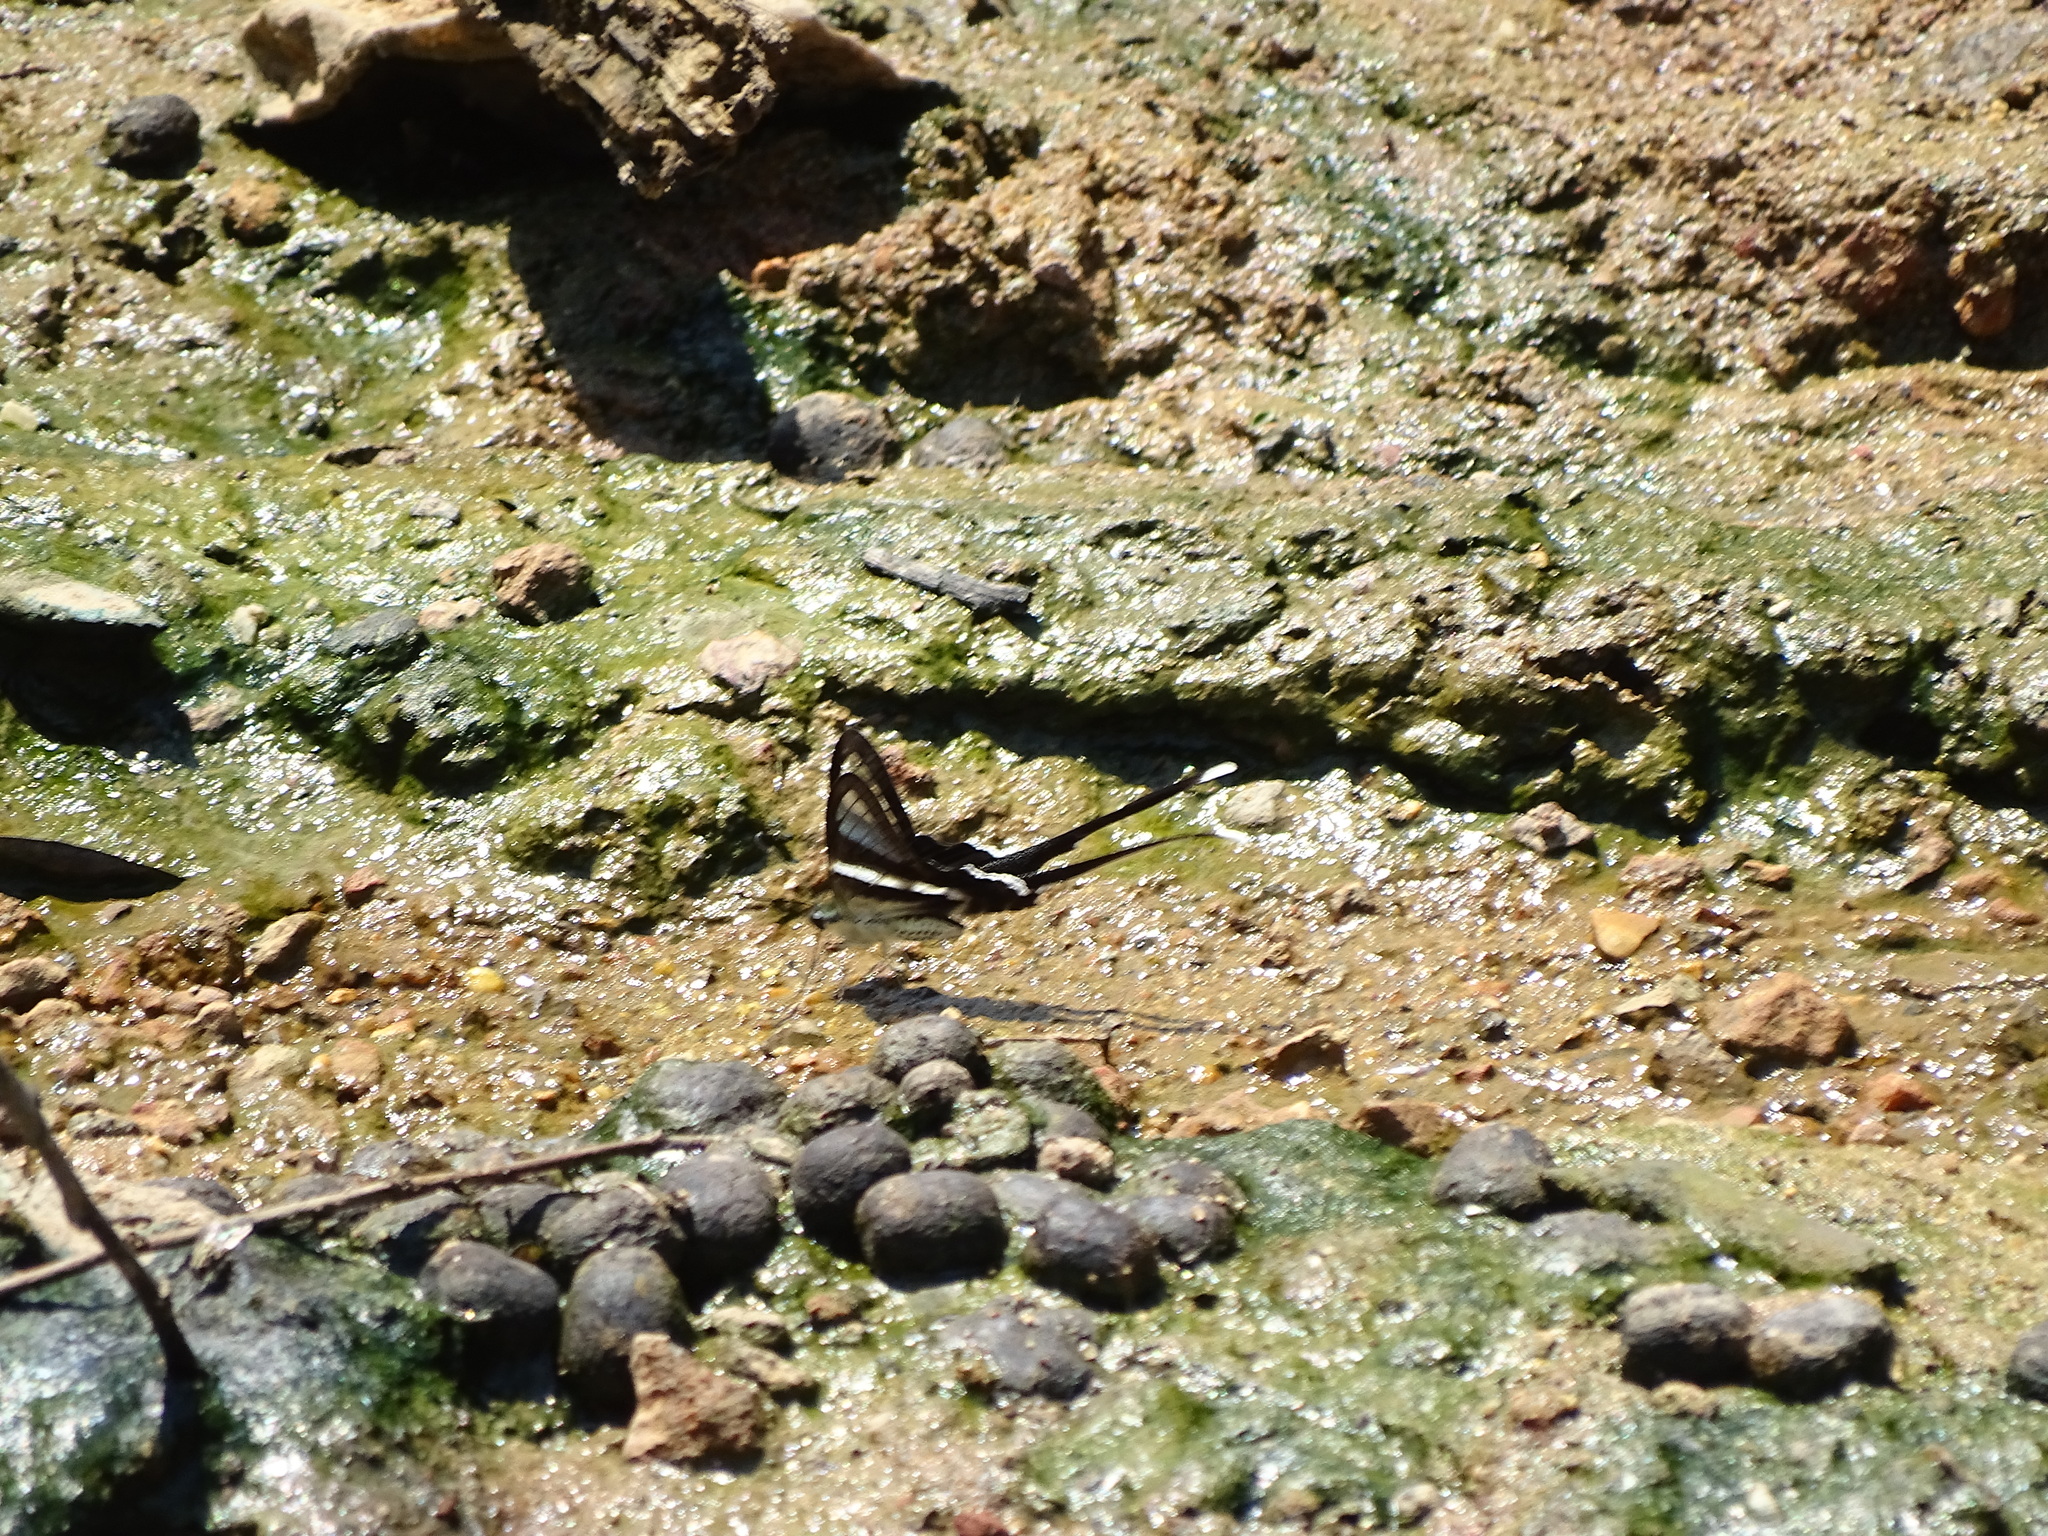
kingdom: Animalia
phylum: Arthropoda
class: Insecta
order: Lepidoptera
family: Papilionidae
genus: Lamproptera
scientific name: Lamproptera curius
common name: White dragontail
